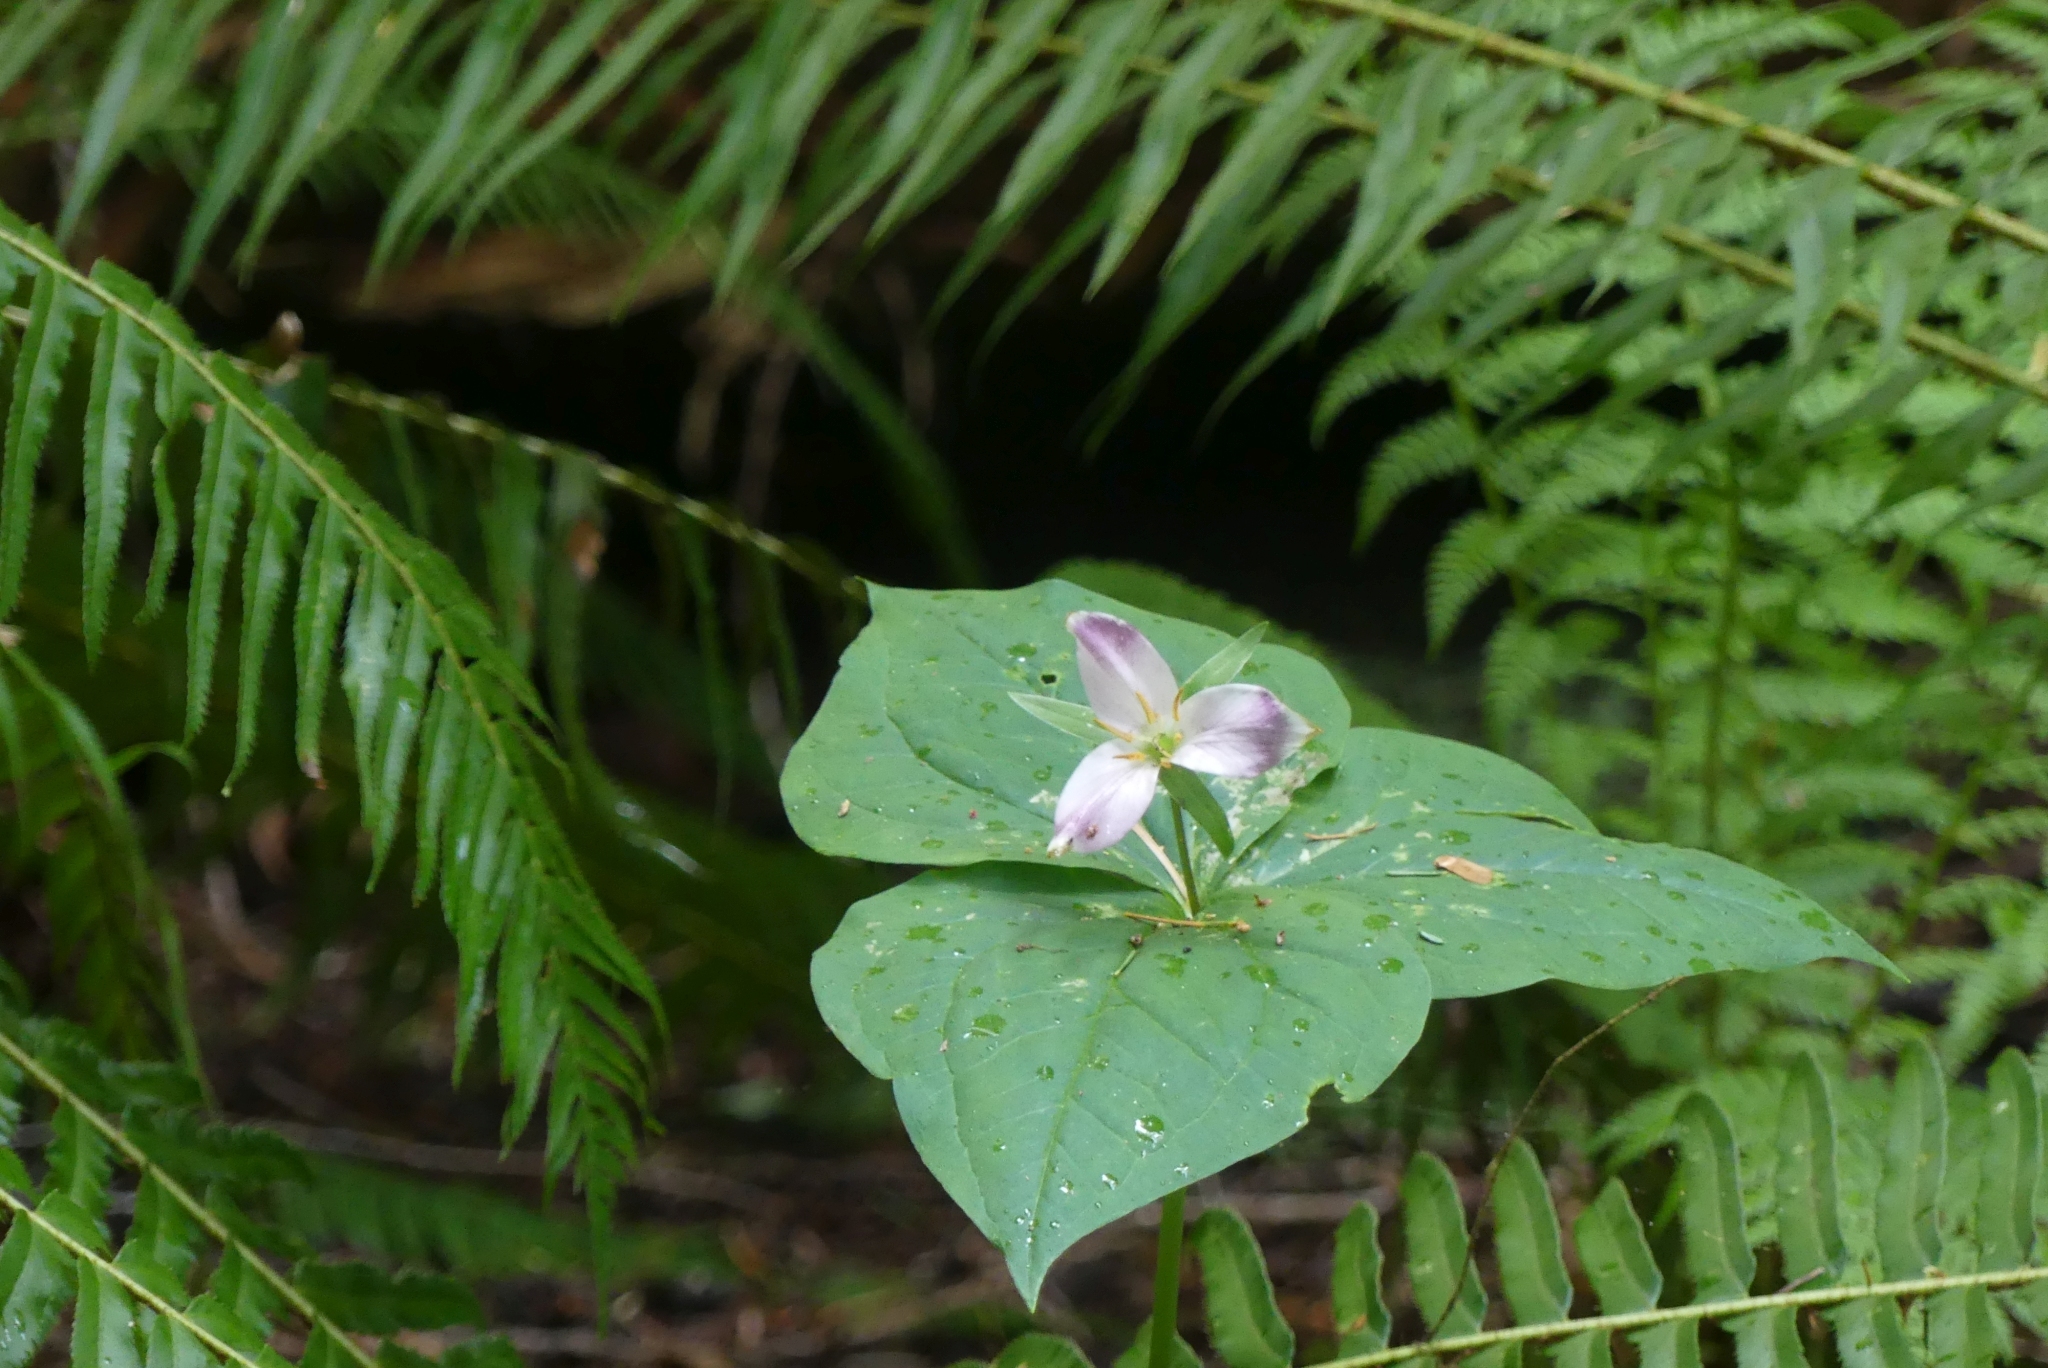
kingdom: Plantae
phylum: Tracheophyta
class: Liliopsida
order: Liliales
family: Melanthiaceae
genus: Trillium
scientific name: Trillium ovatum
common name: Pacific trillium
